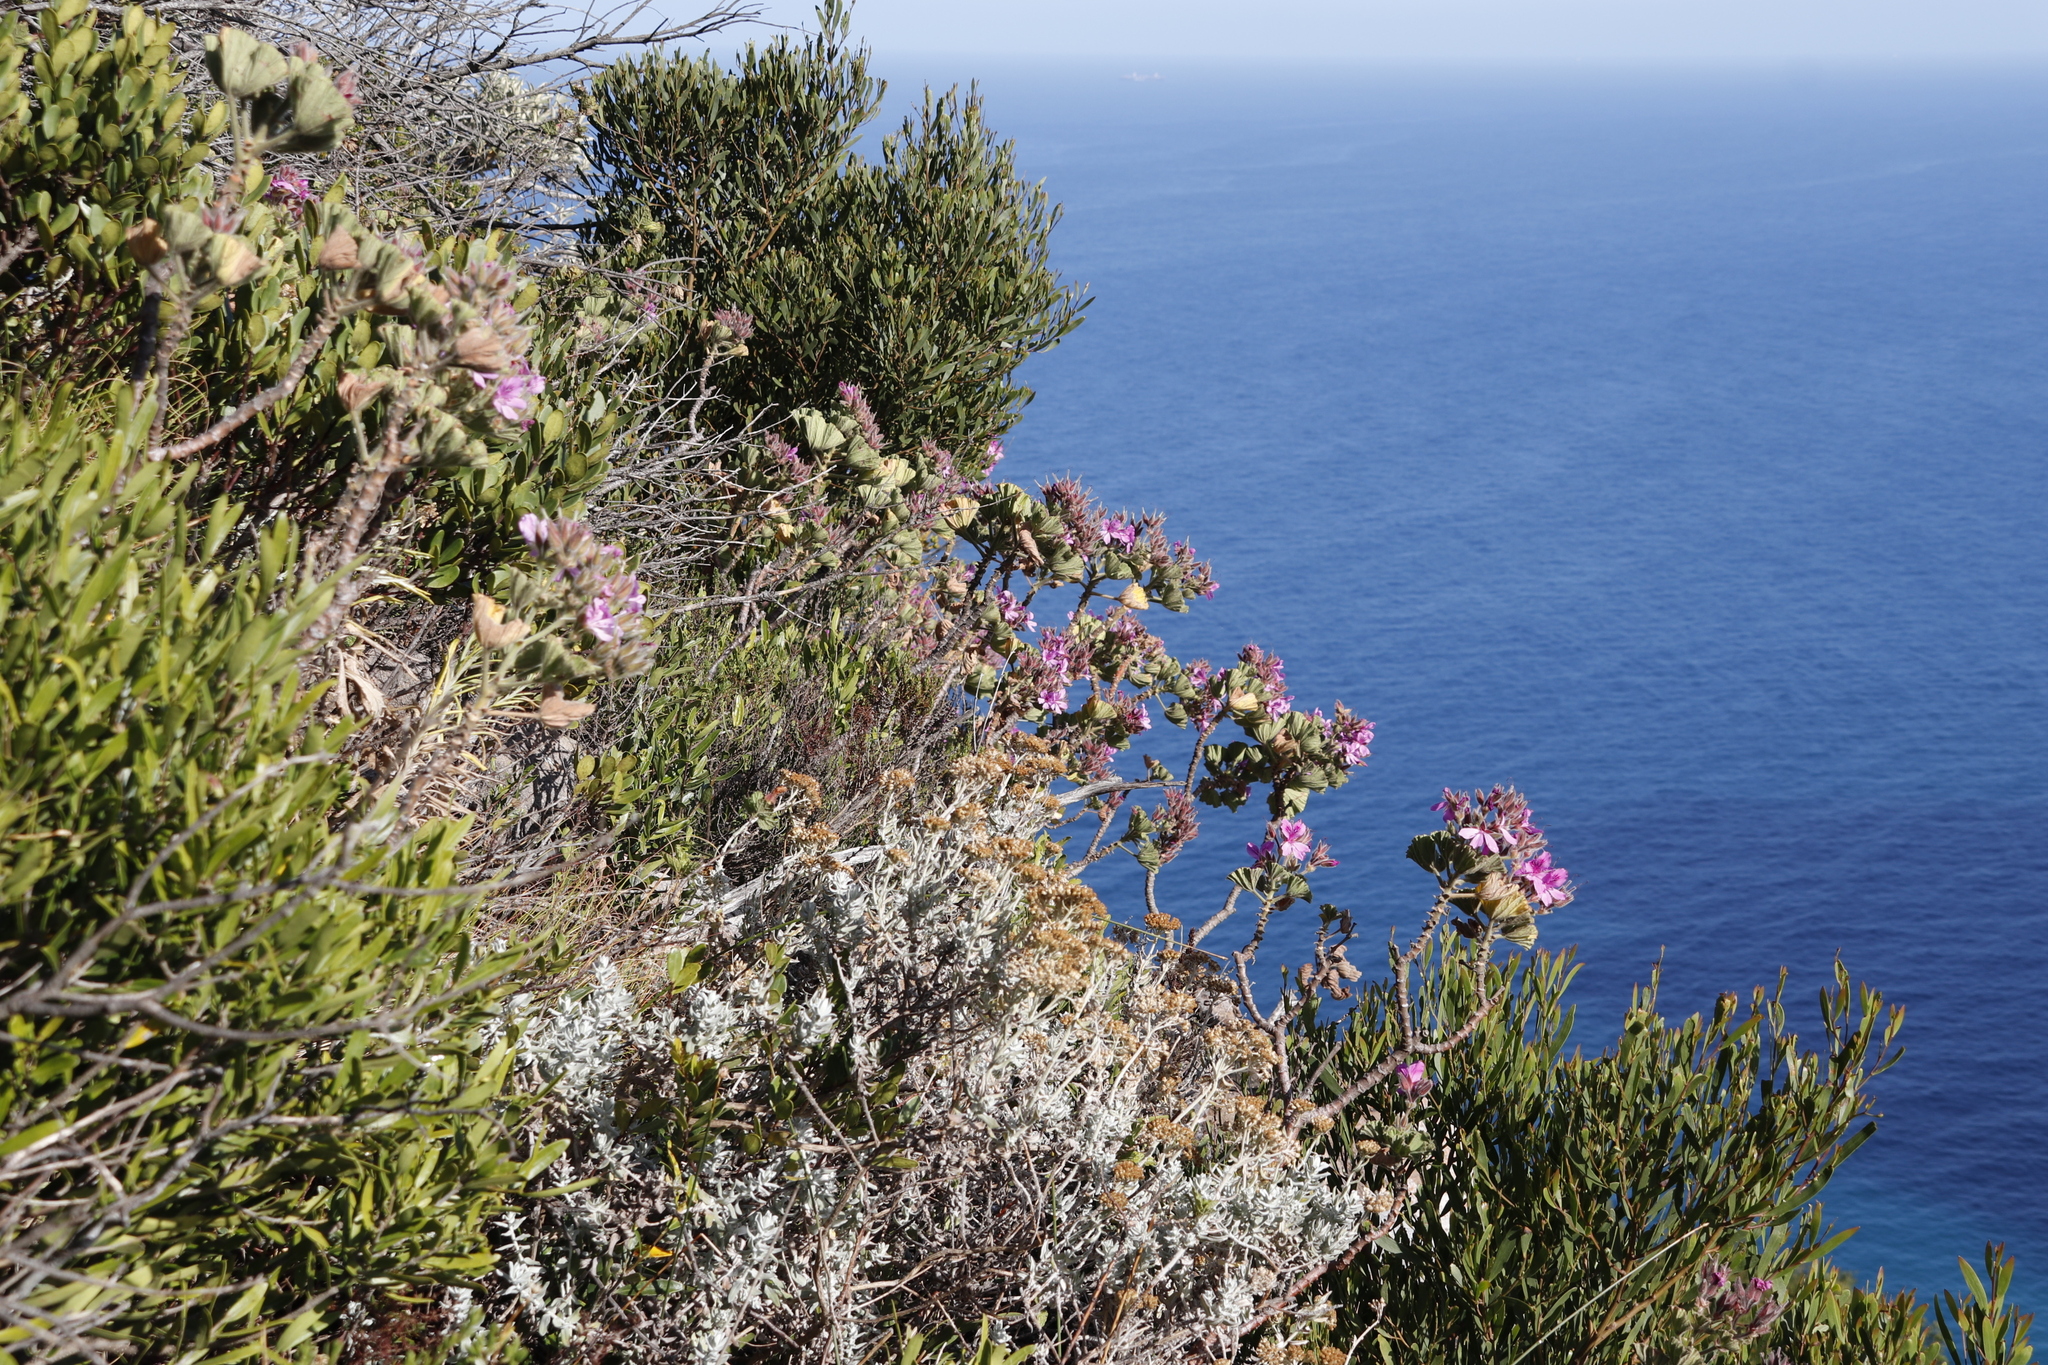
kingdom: Plantae
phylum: Tracheophyta
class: Magnoliopsida
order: Geraniales
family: Geraniaceae
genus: Pelargonium
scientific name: Pelargonium cucullatum
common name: Tree pelargonium
